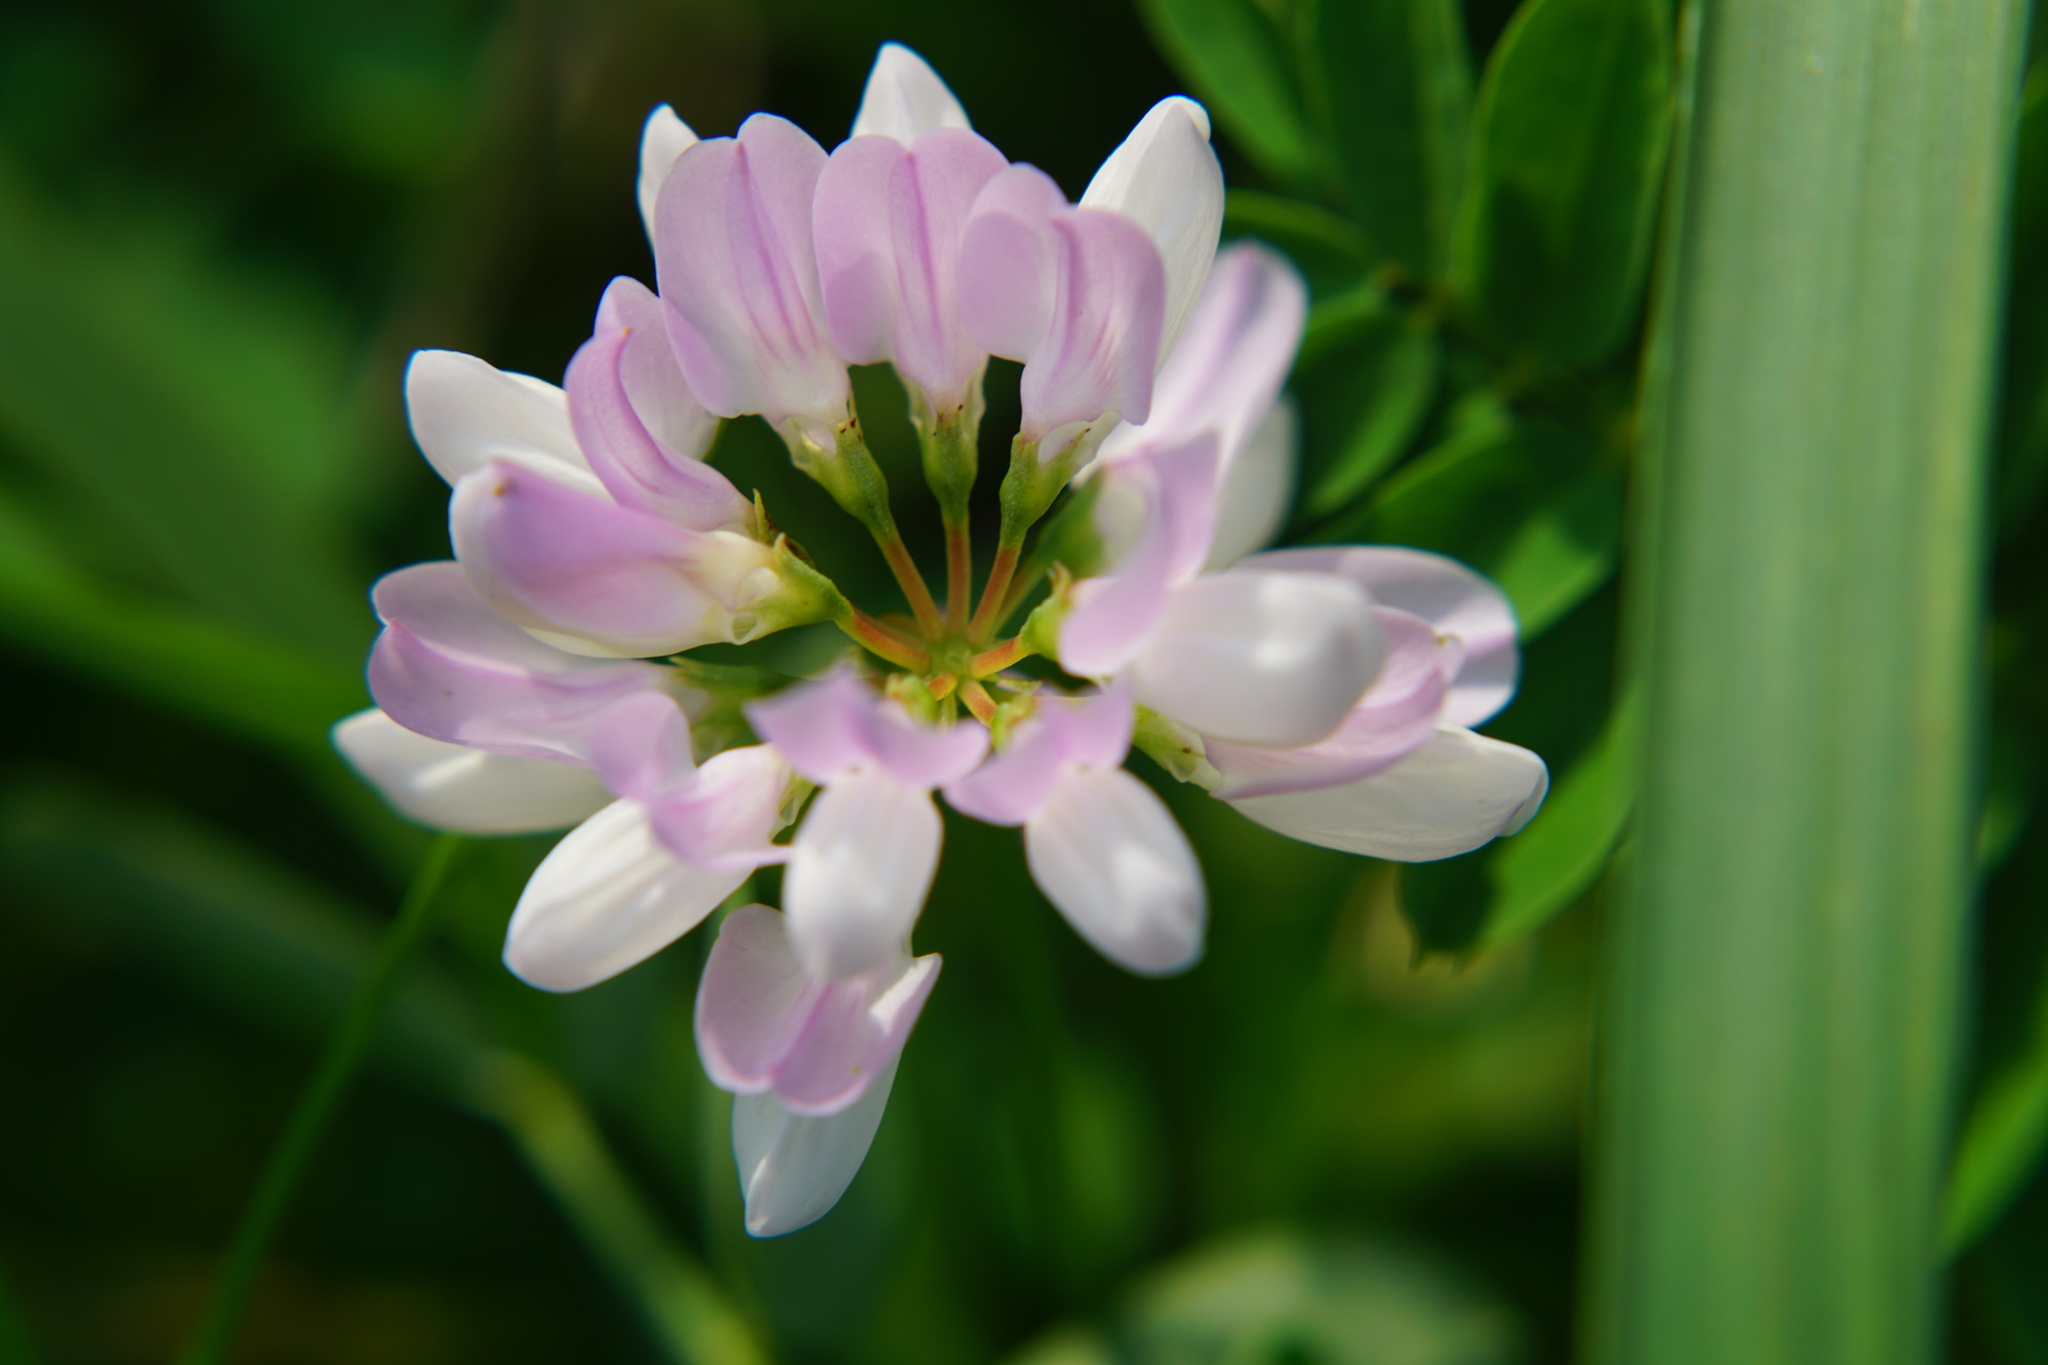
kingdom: Plantae
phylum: Tracheophyta
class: Magnoliopsida
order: Fabales
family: Fabaceae
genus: Coronilla
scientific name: Coronilla varia
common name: Crownvetch
